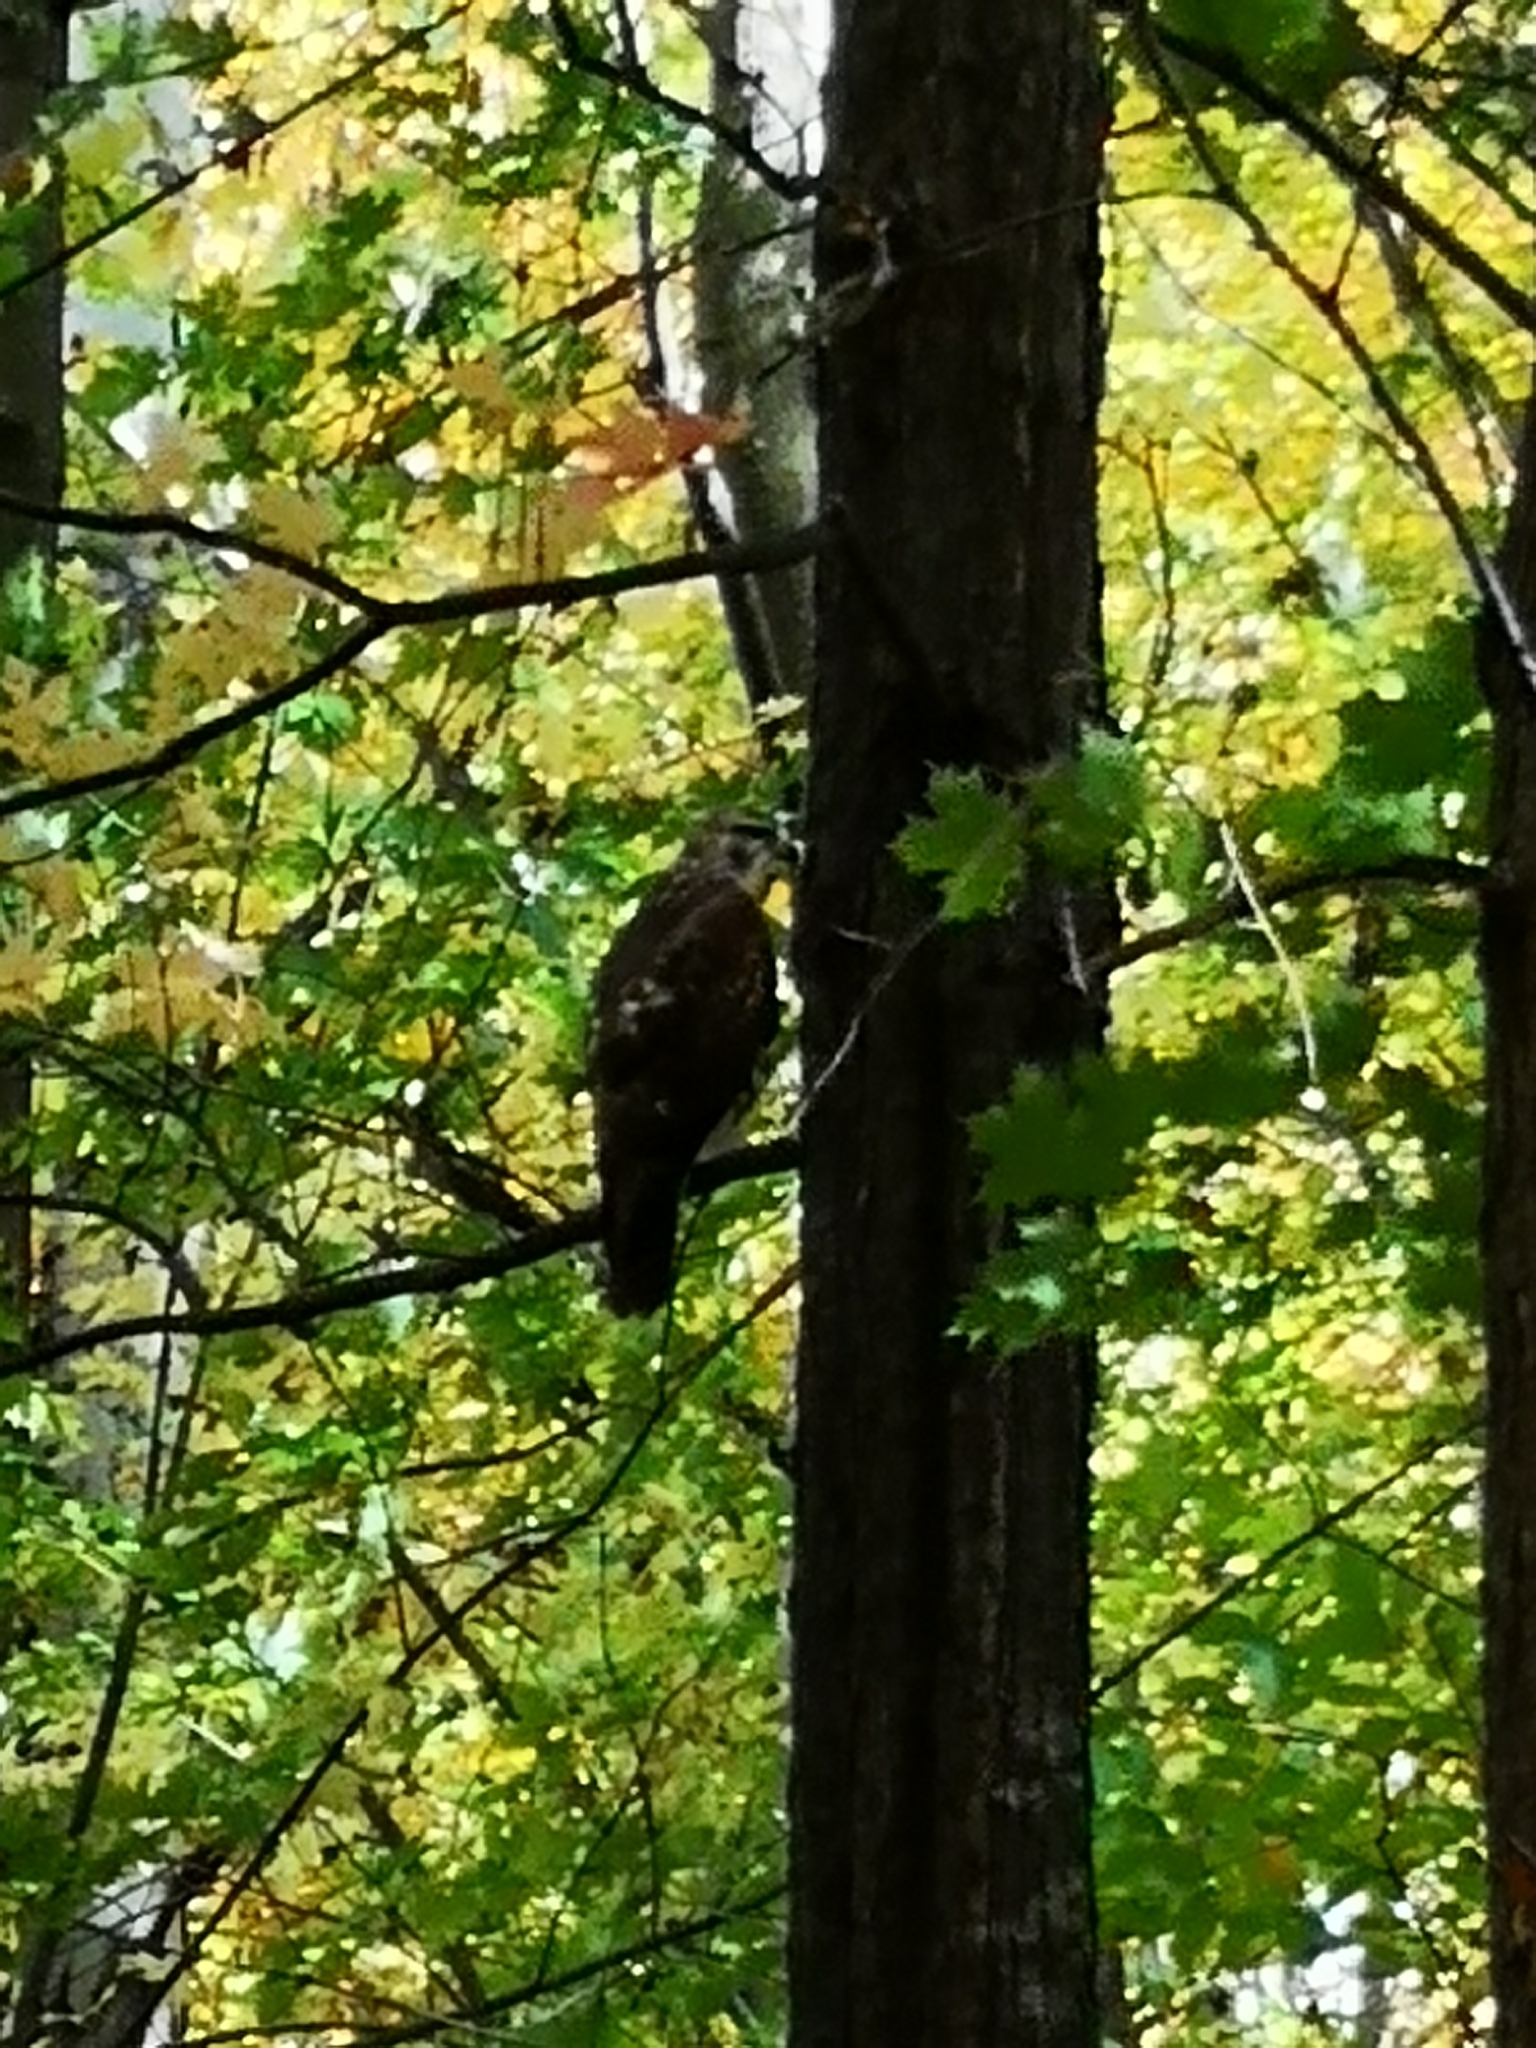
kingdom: Animalia
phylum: Chordata
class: Aves
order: Accipitriformes
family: Accipitridae
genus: Buteo
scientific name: Buteo jamaicensis
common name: Red-tailed hawk
